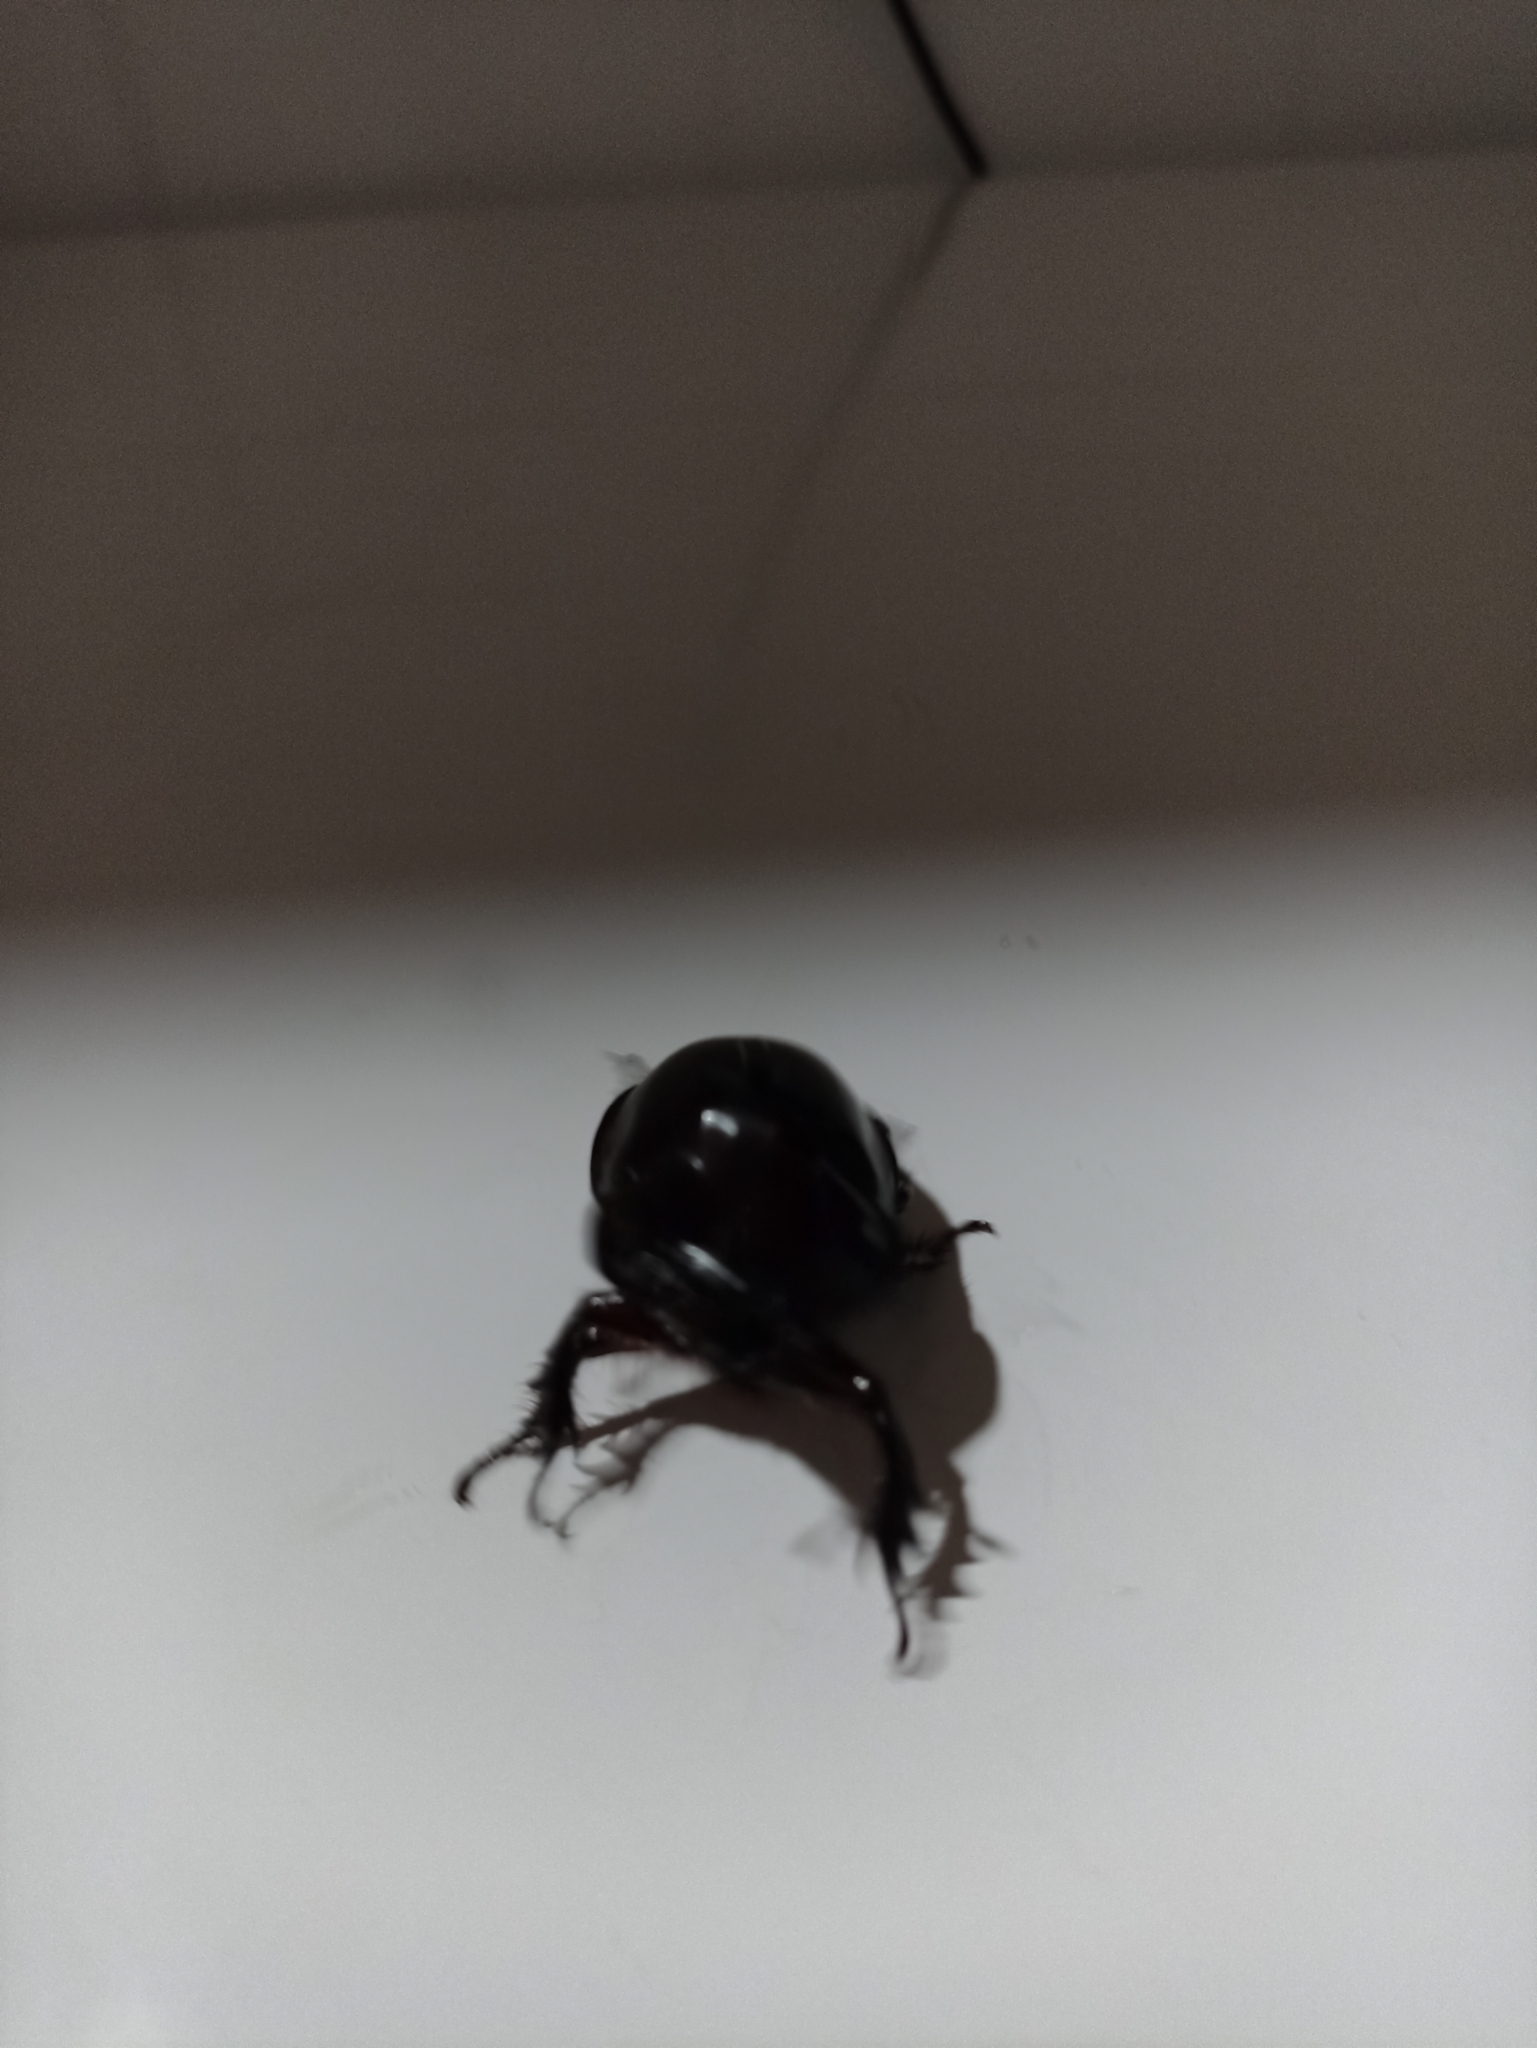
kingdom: Animalia
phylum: Arthropoda
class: Insecta
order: Coleoptera
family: Scarabaeidae
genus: Enema
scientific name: Enema pan
